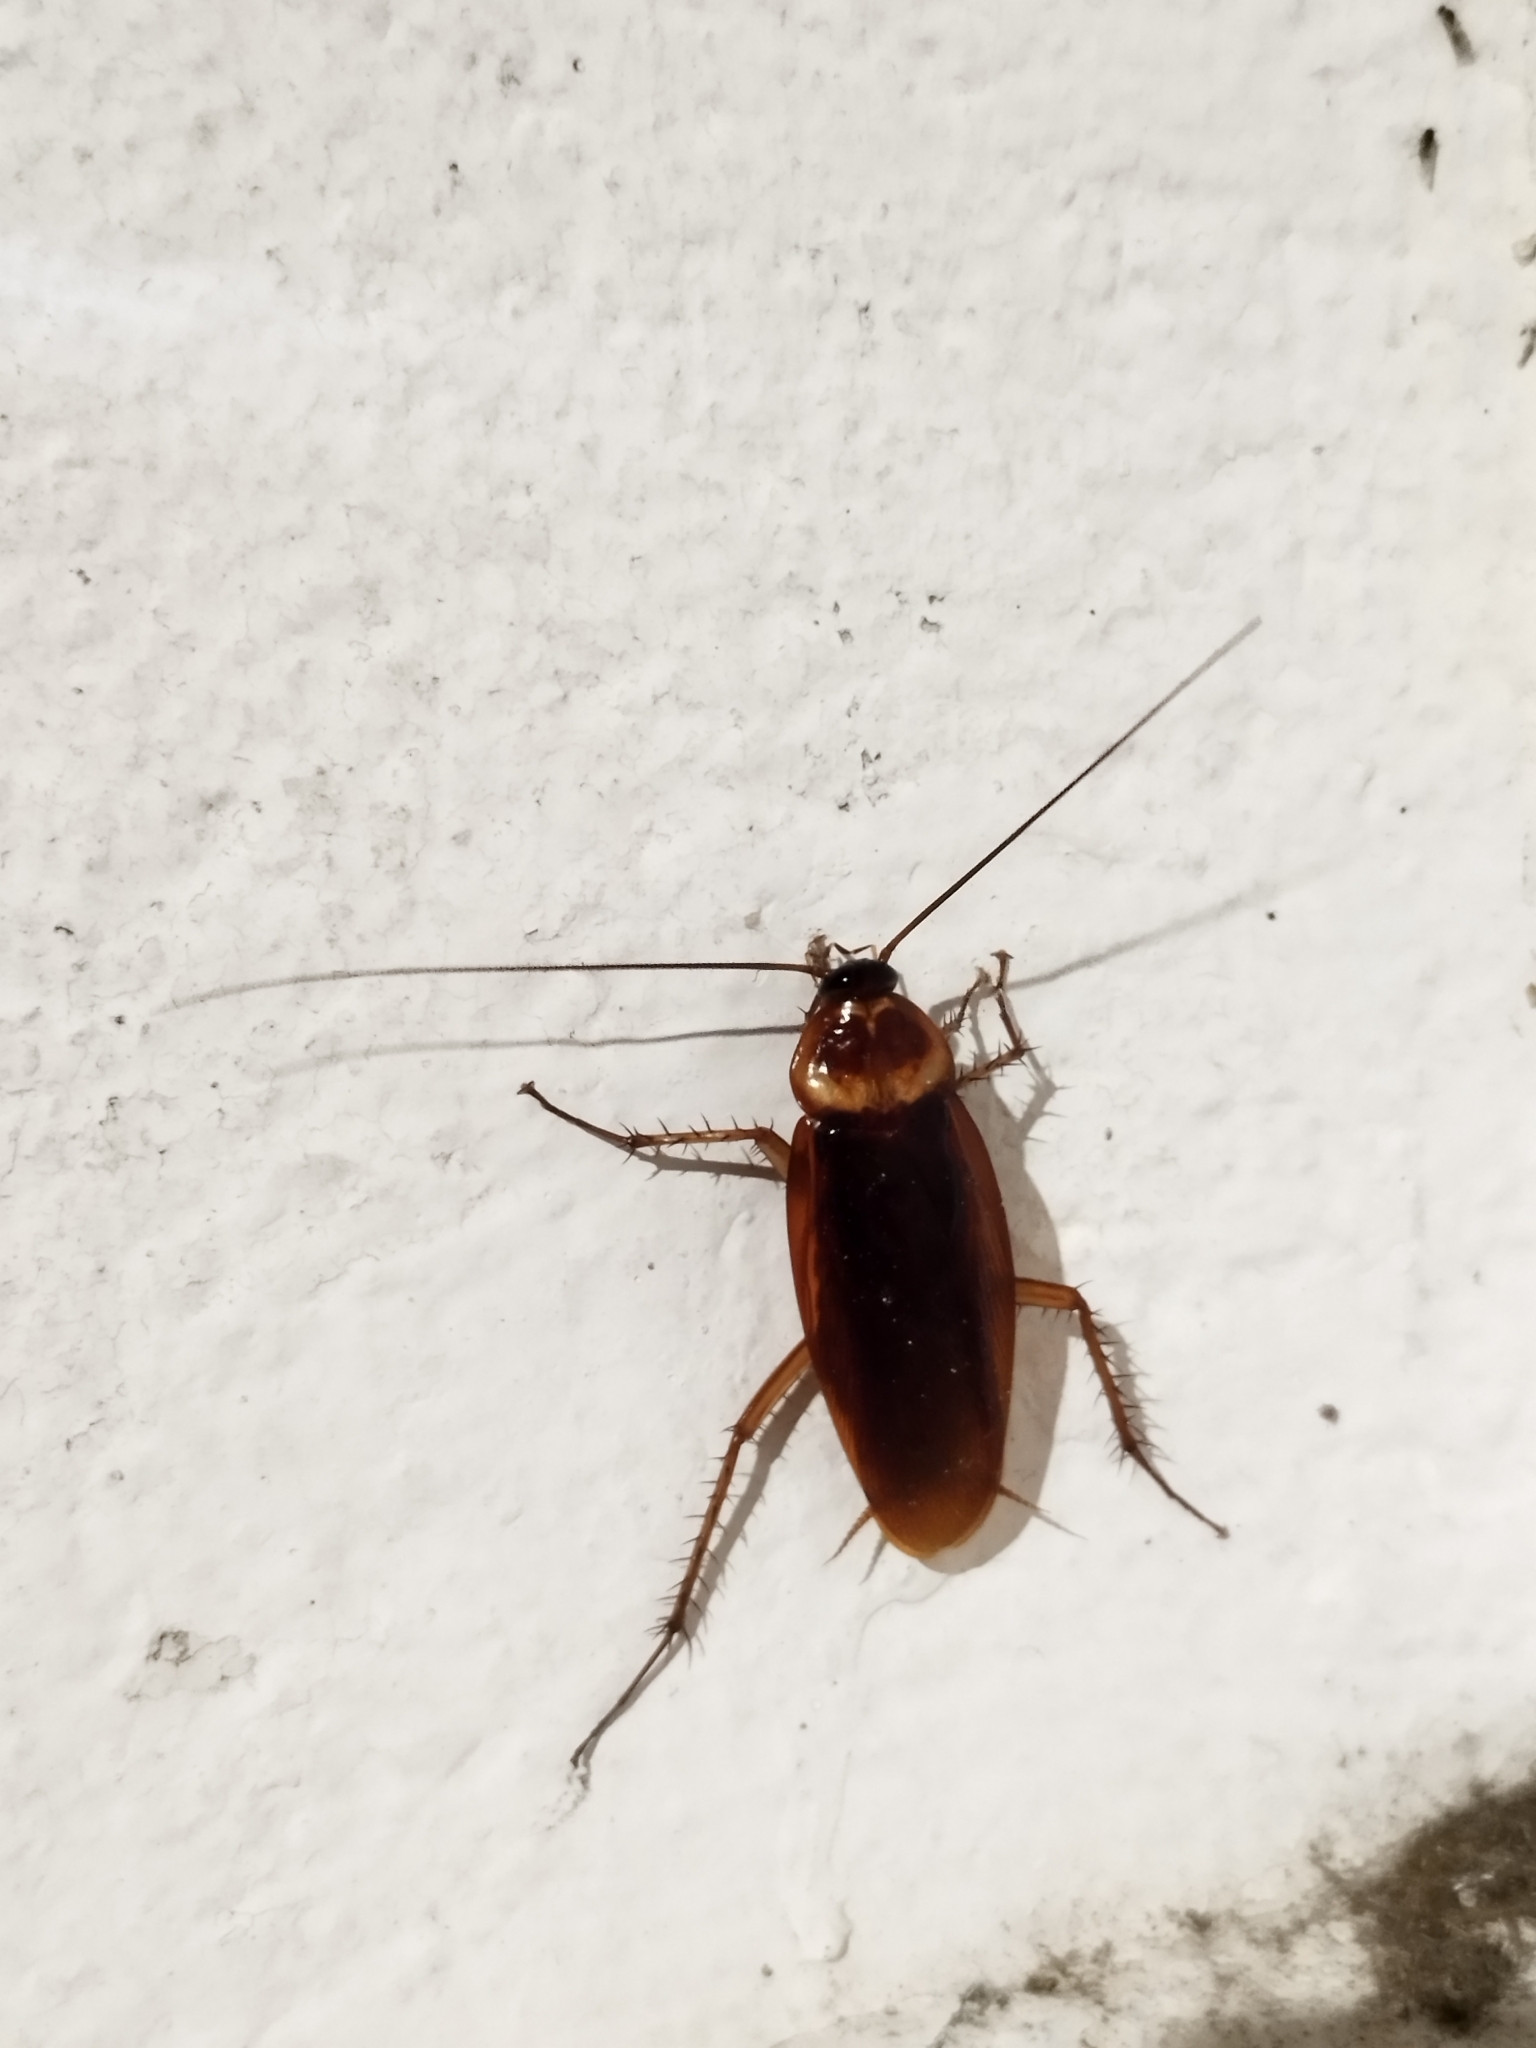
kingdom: Animalia
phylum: Arthropoda
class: Insecta
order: Blattodea
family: Blattidae
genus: Periplaneta
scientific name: Periplaneta americana
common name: American cockroach
